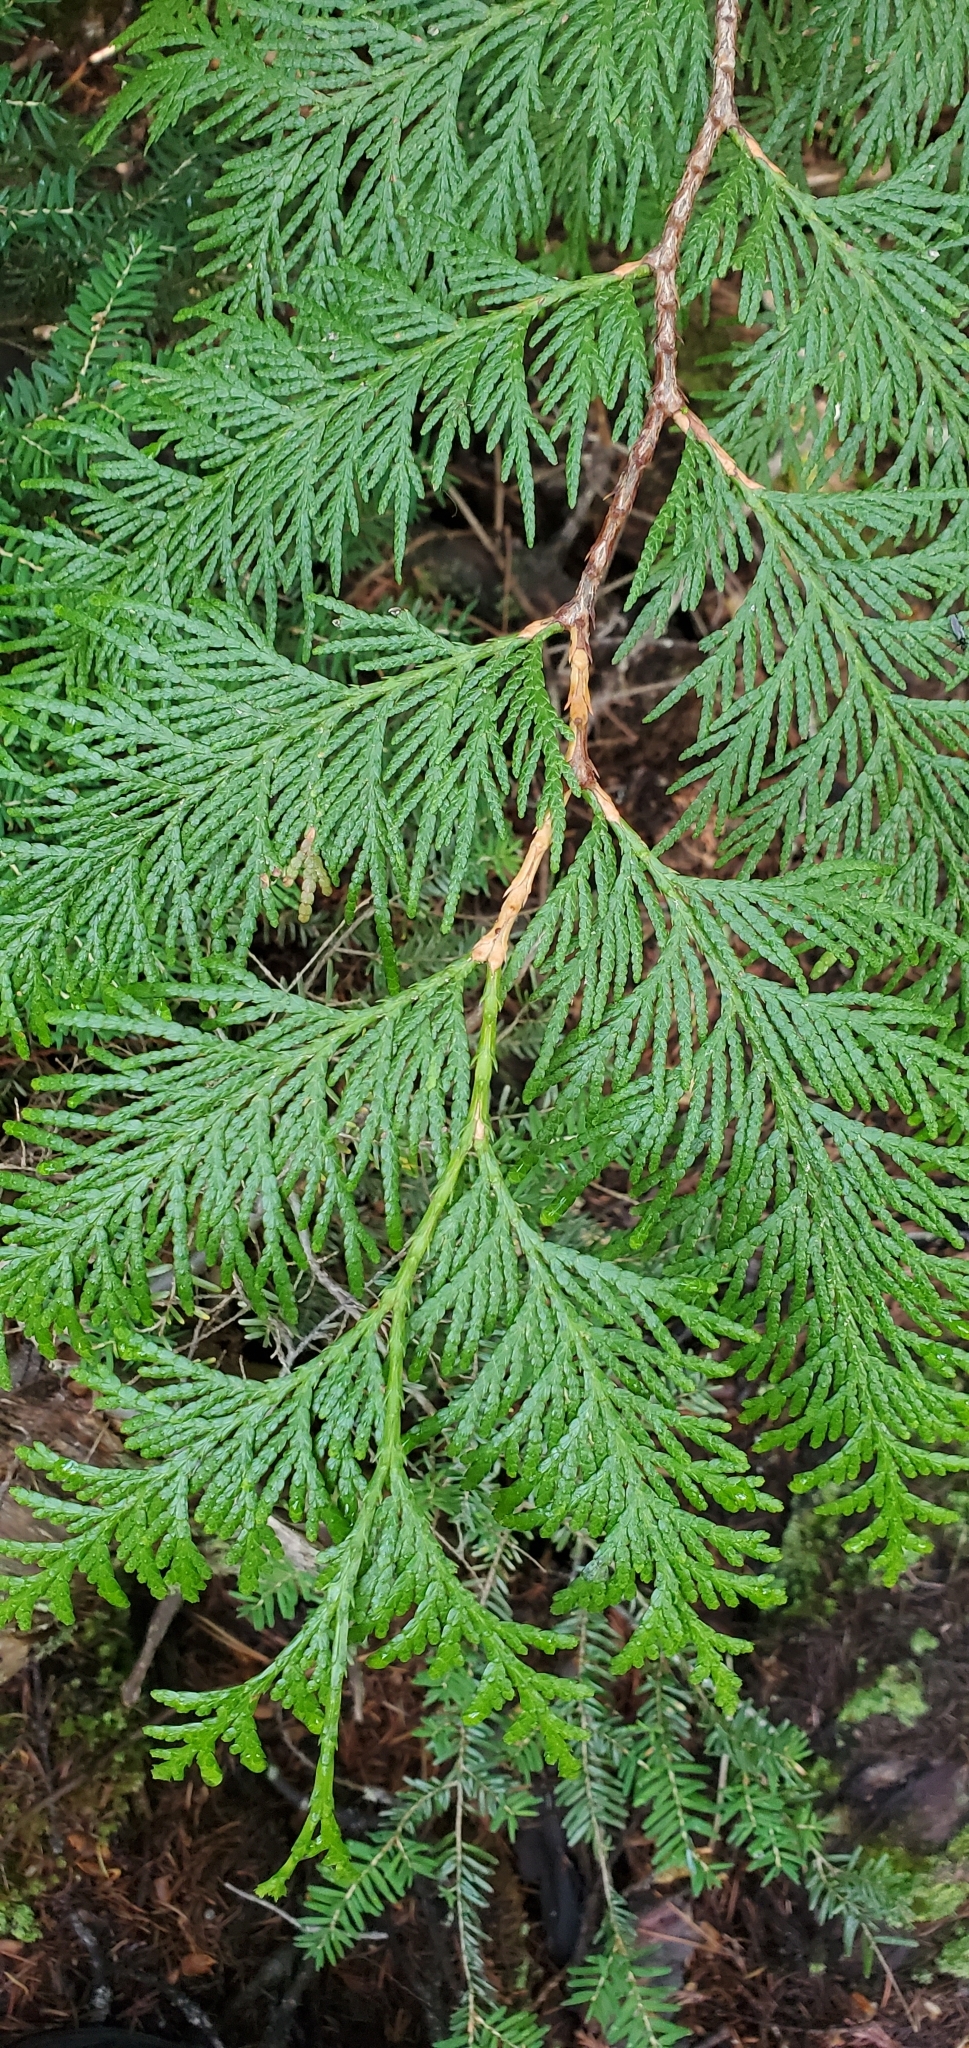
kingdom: Plantae
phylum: Tracheophyta
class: Pinopsida
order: Pinales
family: Cupressaceae
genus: Thuja
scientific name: Thuja plicata
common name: Western red-cedar
